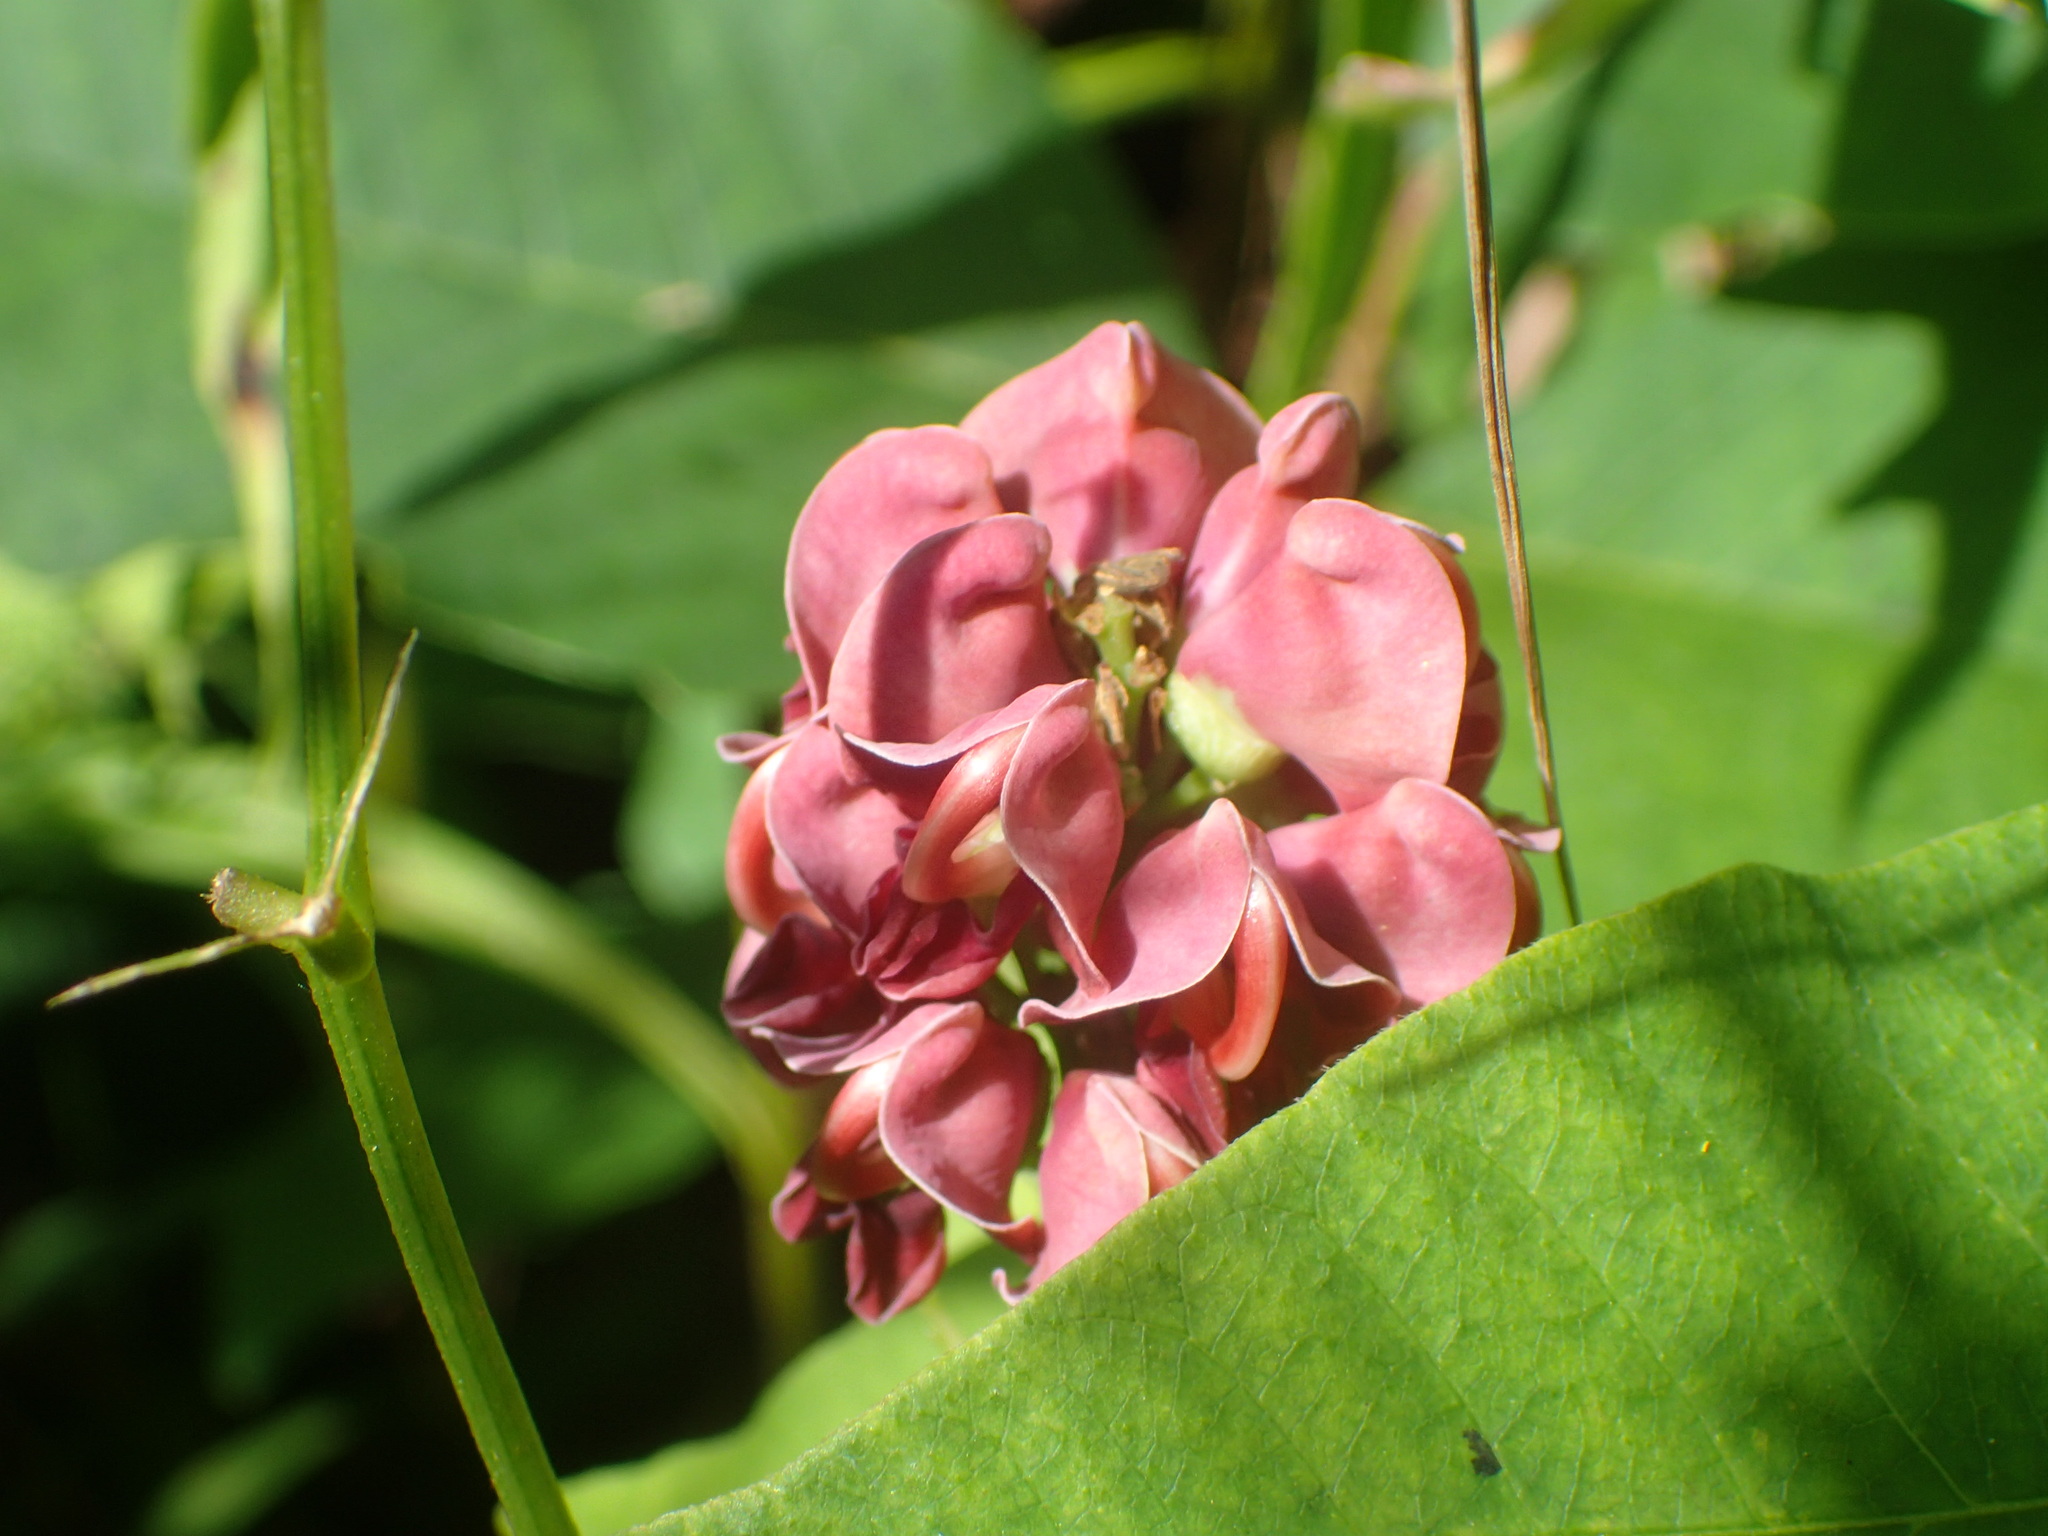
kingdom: Plantae
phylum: Tracheophyta
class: Magnoliopsida
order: Fabales
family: Fabaceae
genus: Apios
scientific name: Apios americana
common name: American potato-bean
